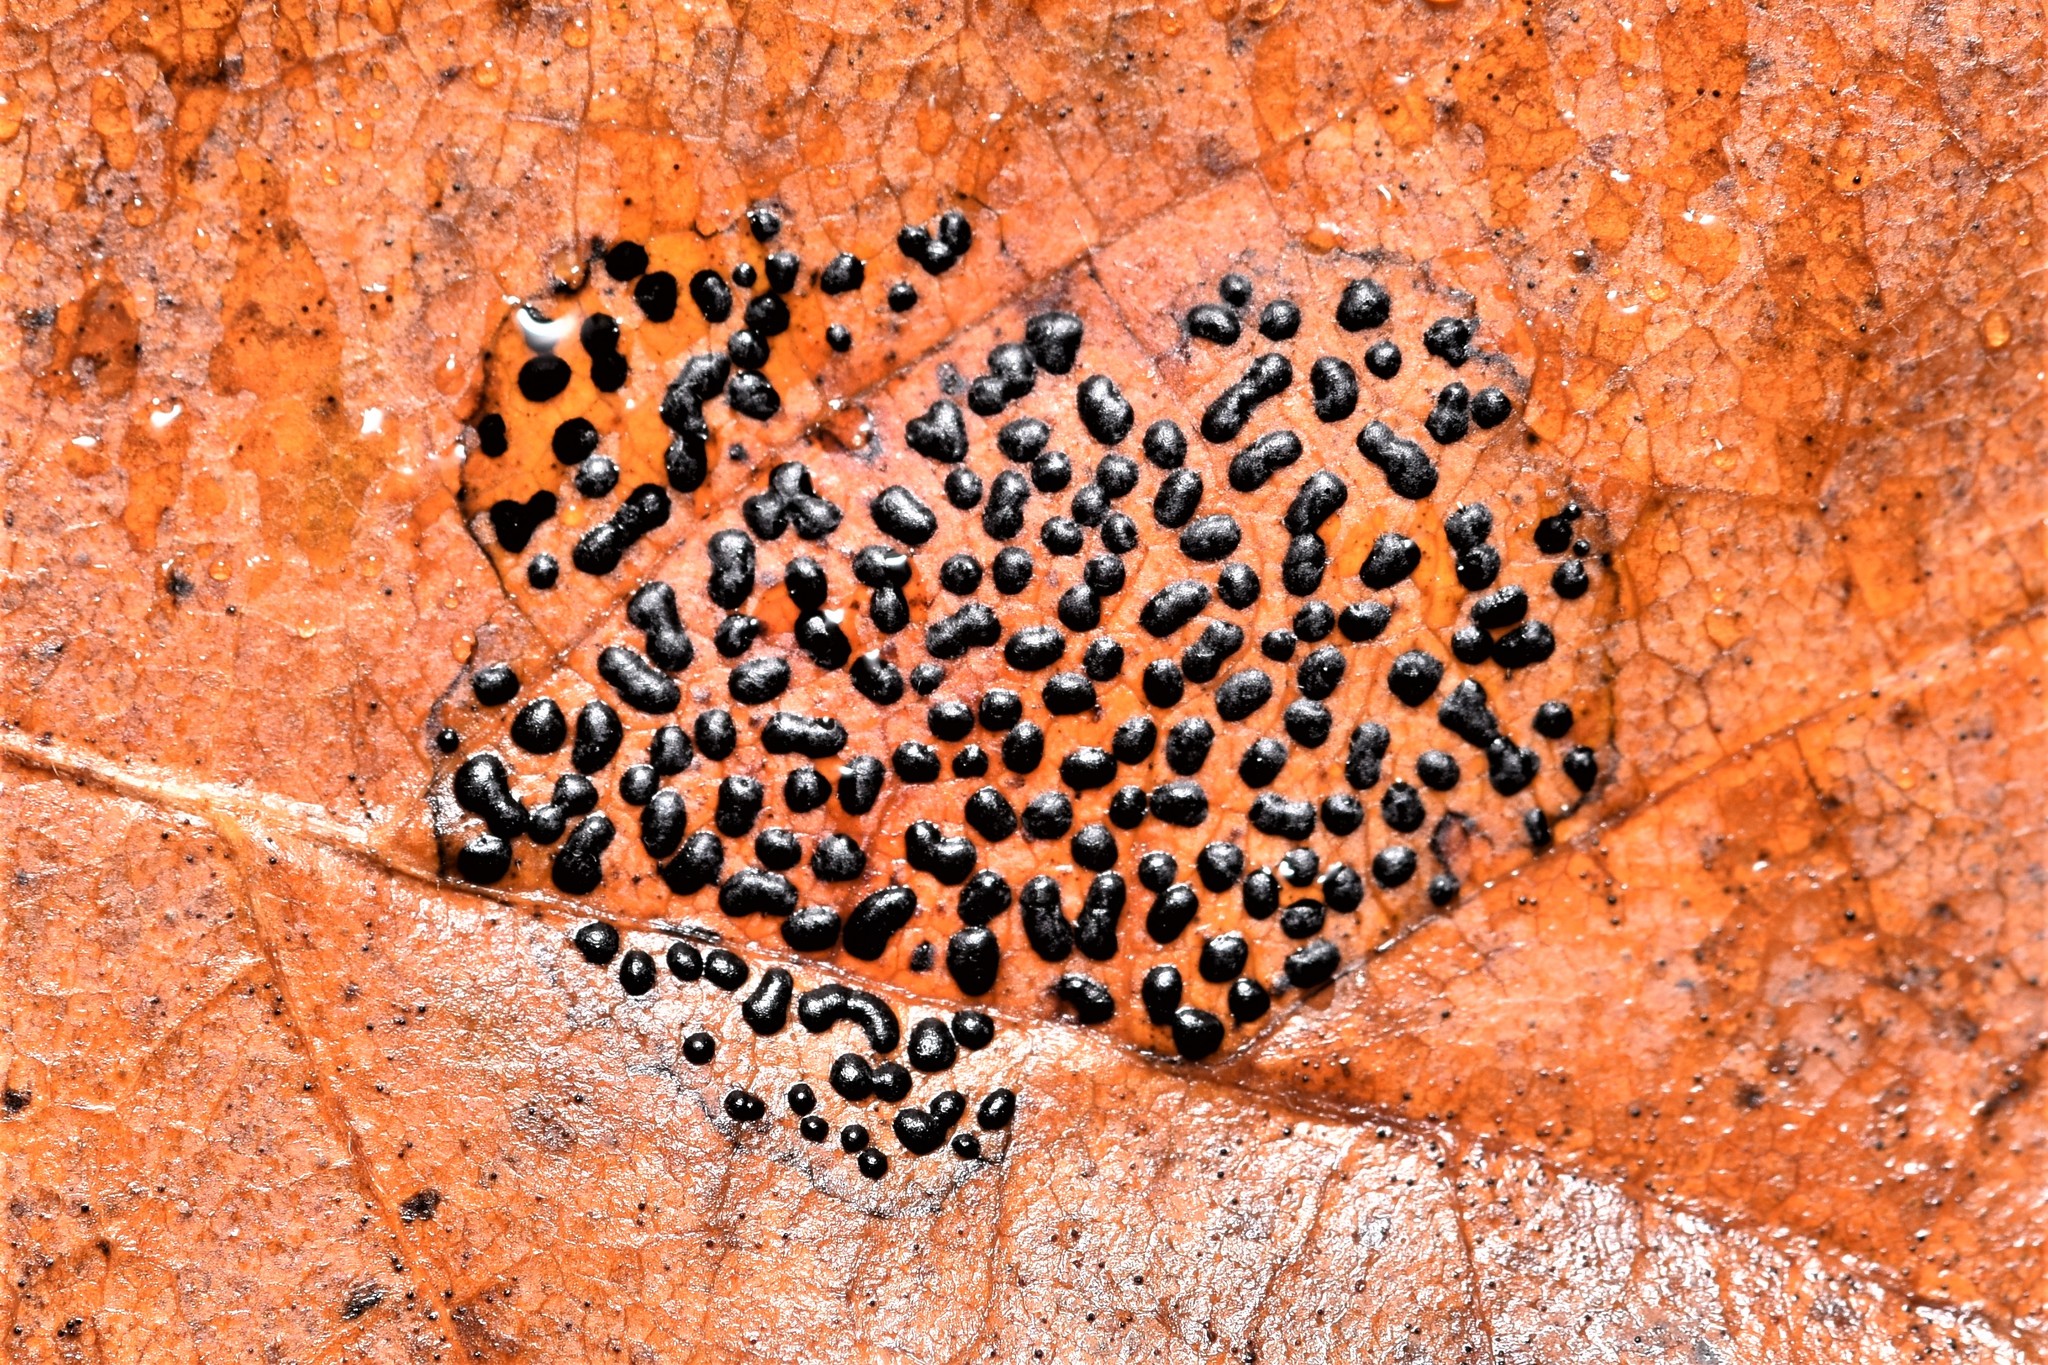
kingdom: Fungi
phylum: Ascomycota
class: Leotiomycetes
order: Rhytismatales
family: Rhytismataceae
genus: Rhytisma
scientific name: Rhytisma punctatum
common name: Speckled tar spot
